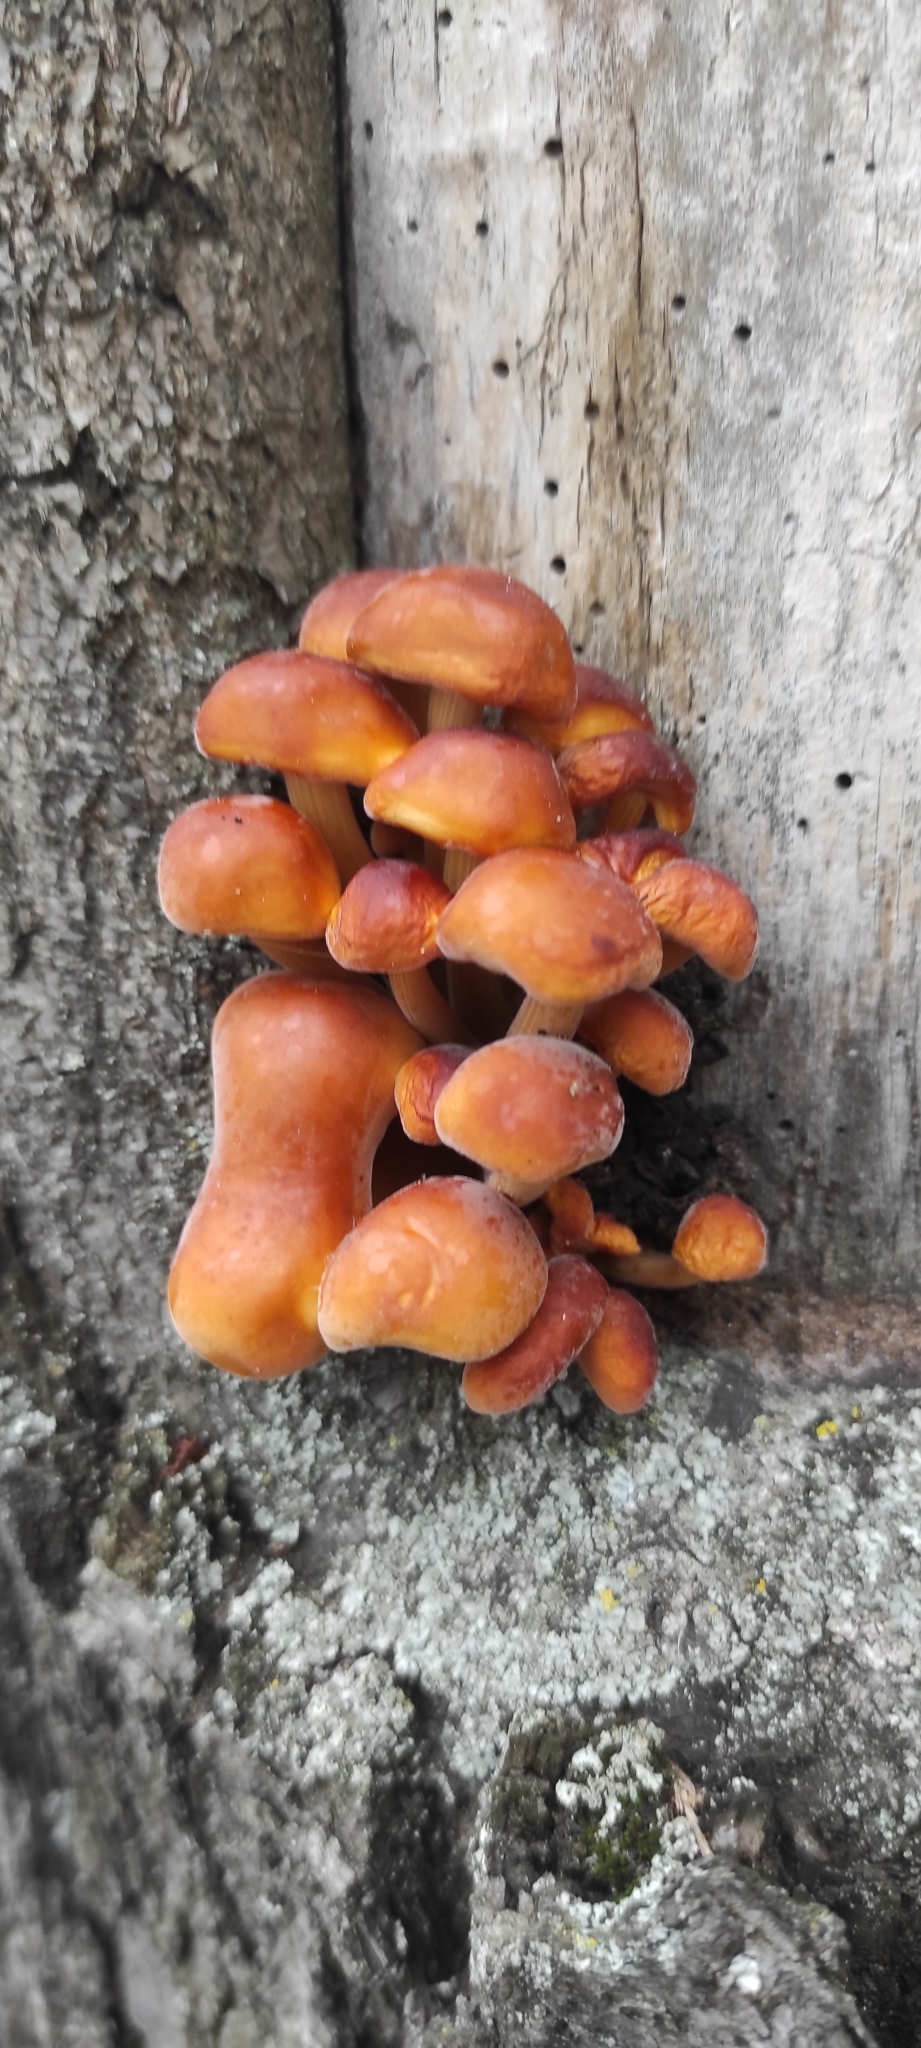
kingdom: Fungi
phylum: Basidiomycota
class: Agaricomycetes
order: Agaricales
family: Physalacriaceae
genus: Flammulina
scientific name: Flammulina
